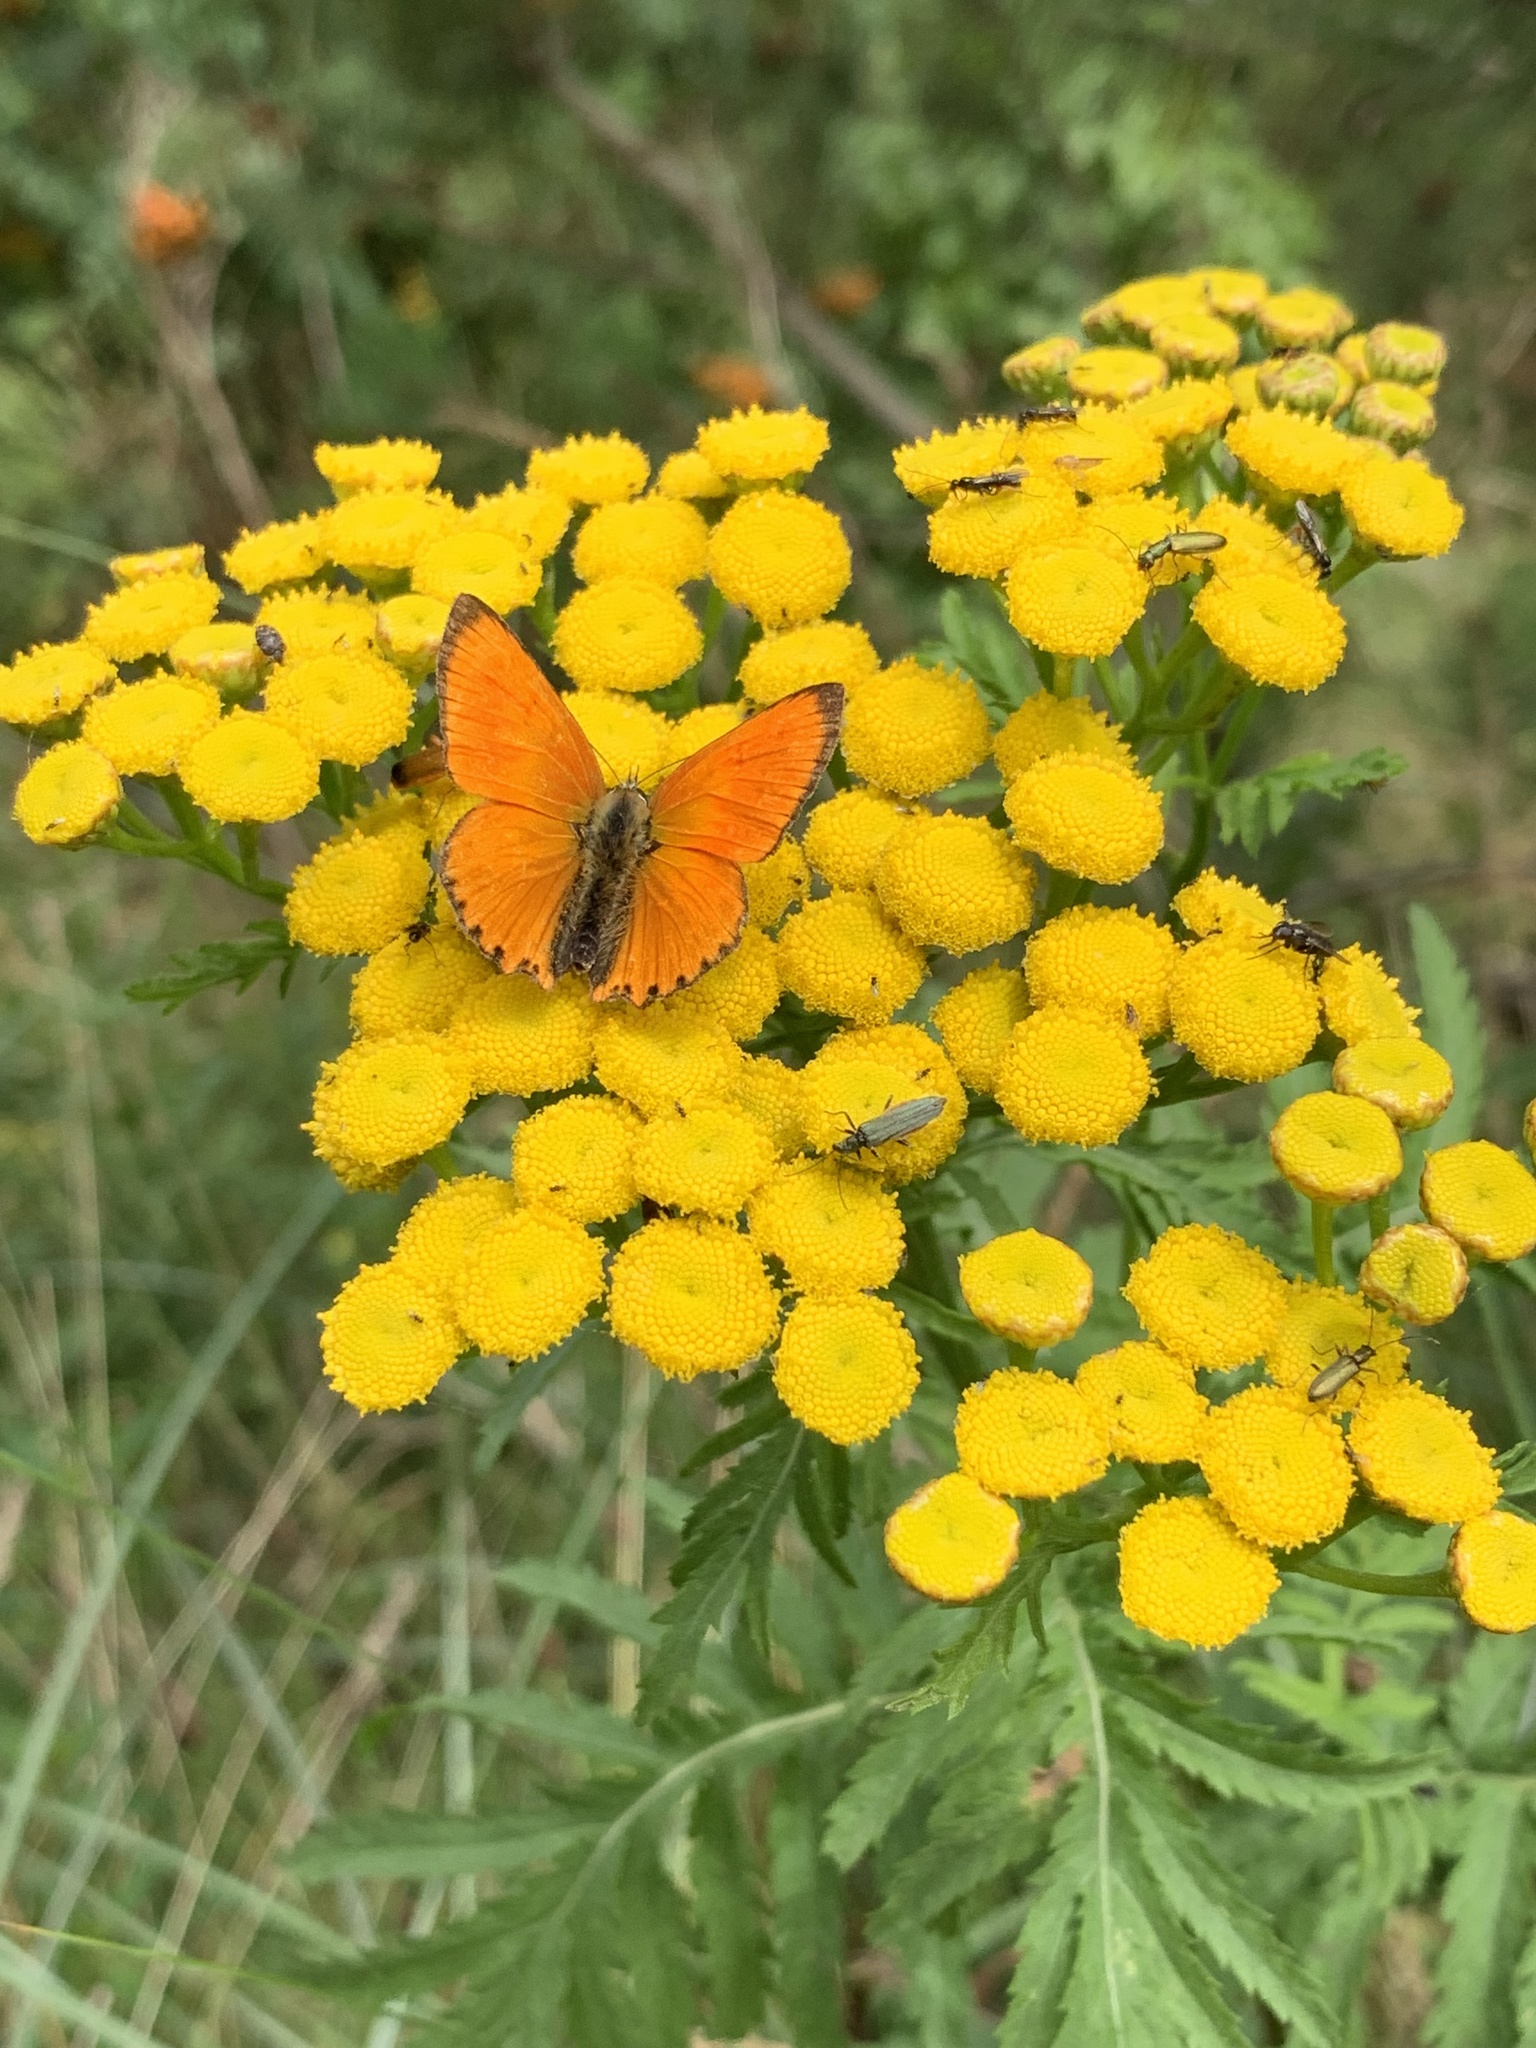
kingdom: Animalia
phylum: Arthropoda
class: Insecta
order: Lepidoptera
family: Lycaenidae
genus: Lycaena
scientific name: Lycaena virgaureae
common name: Scarce copper
